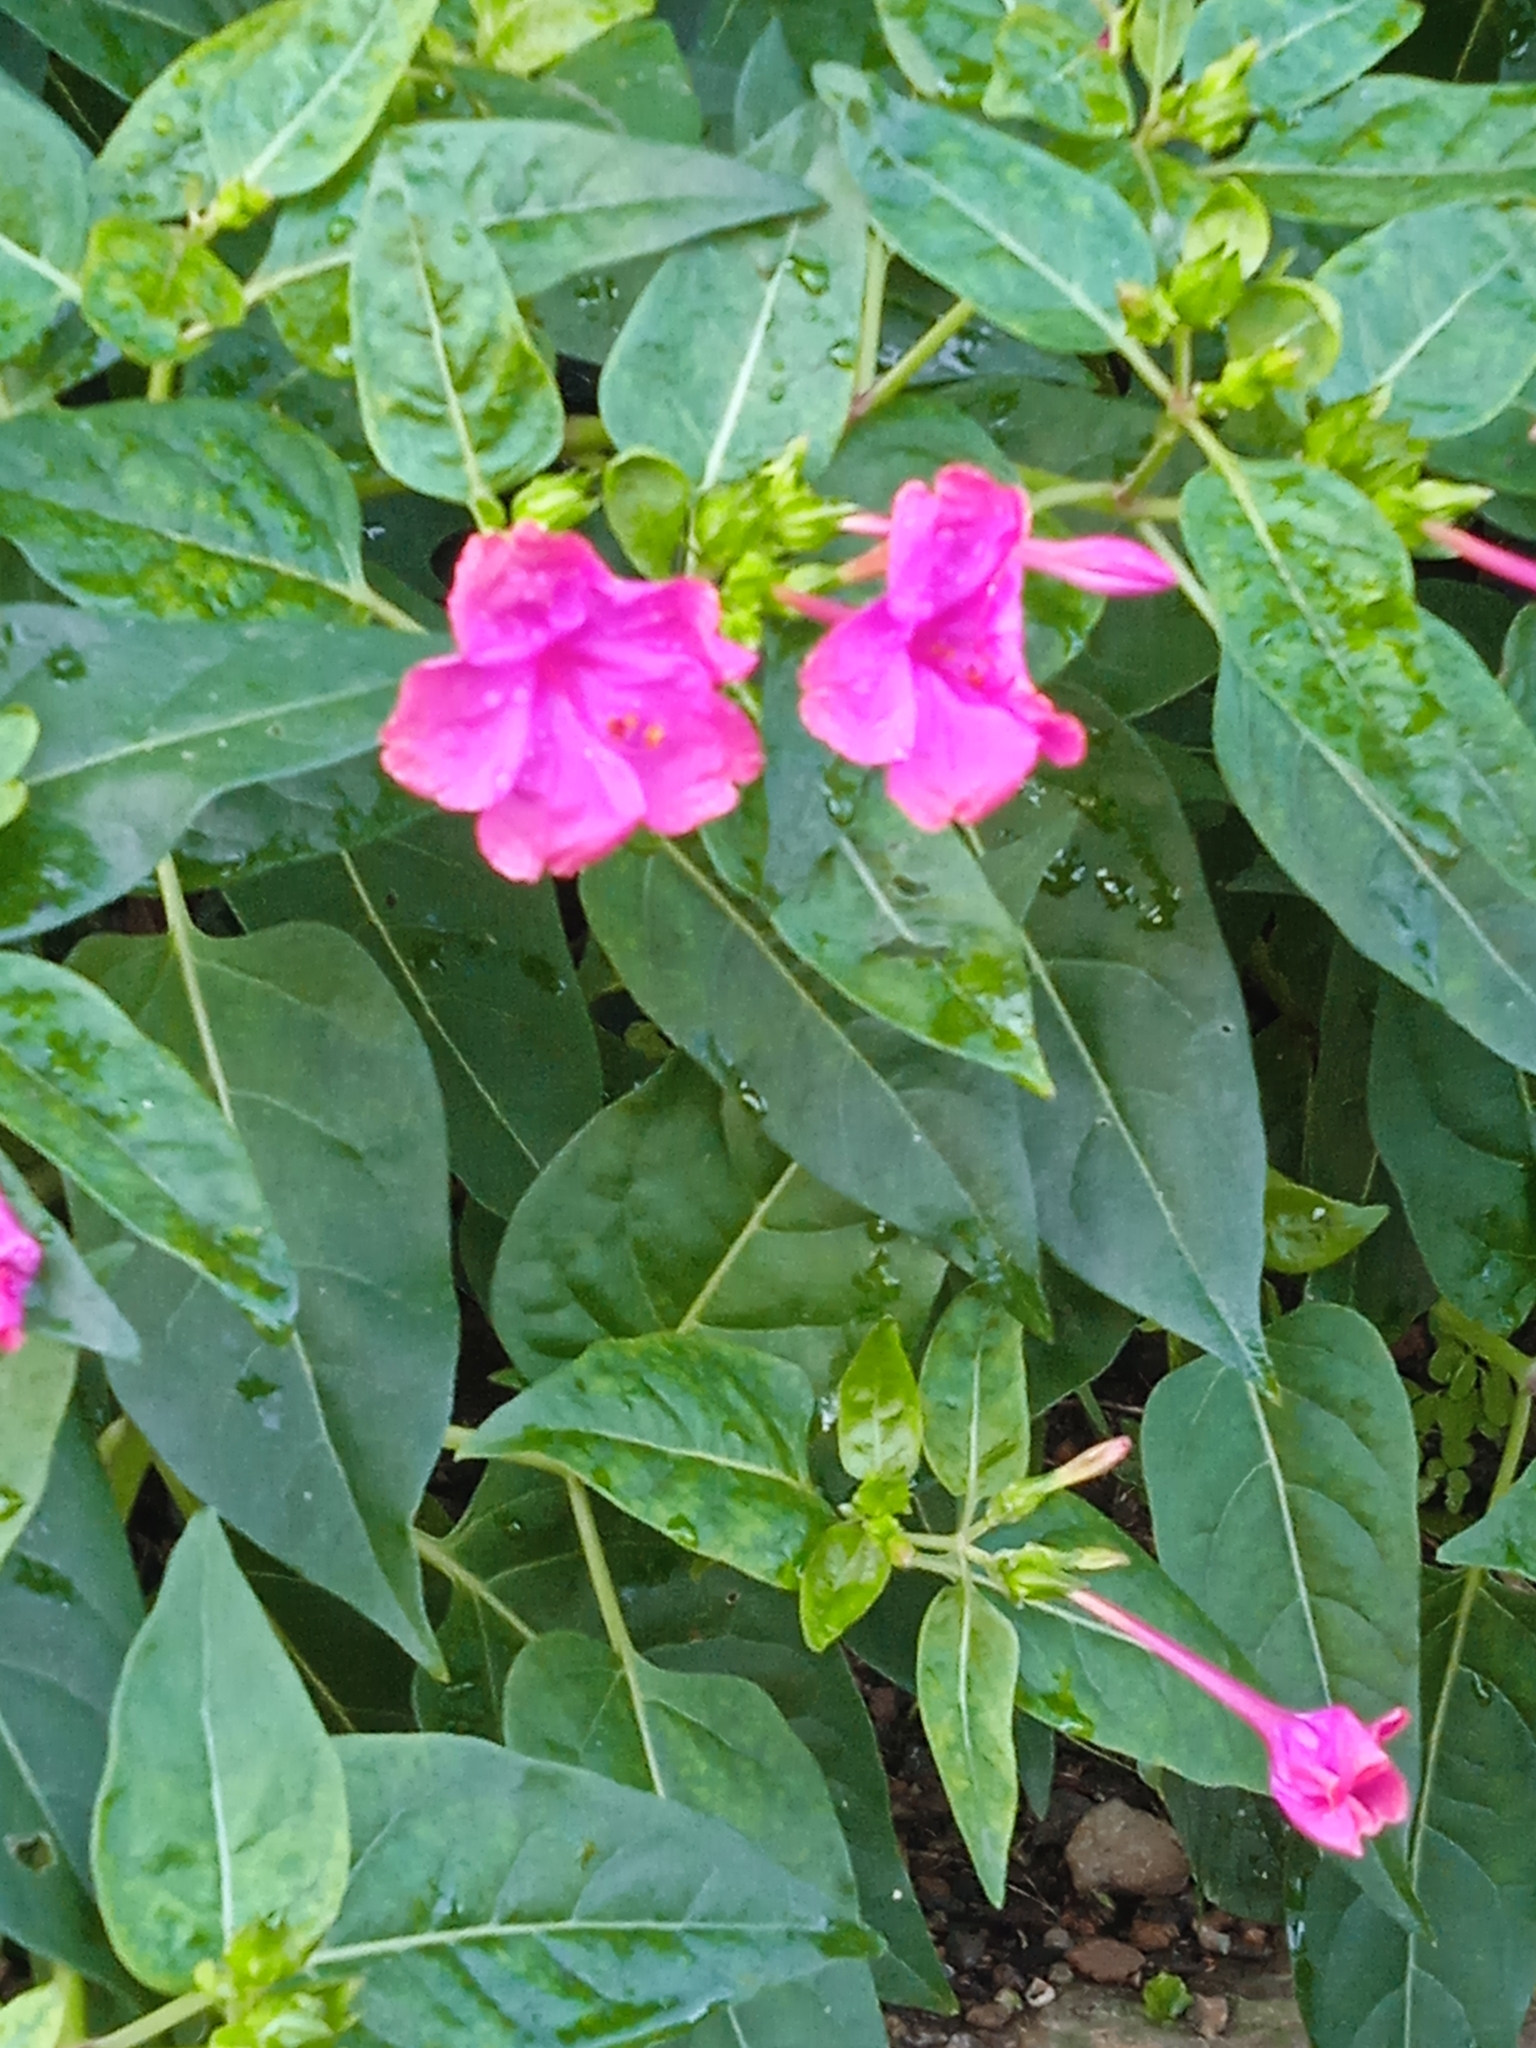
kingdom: Plantae
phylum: Tracheophyta
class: Magnoliopsida
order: Caryophyllales
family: Nyctaginaceae
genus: Mirabilis
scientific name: Mirabilis jalapa
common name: Marvel-of-peru
